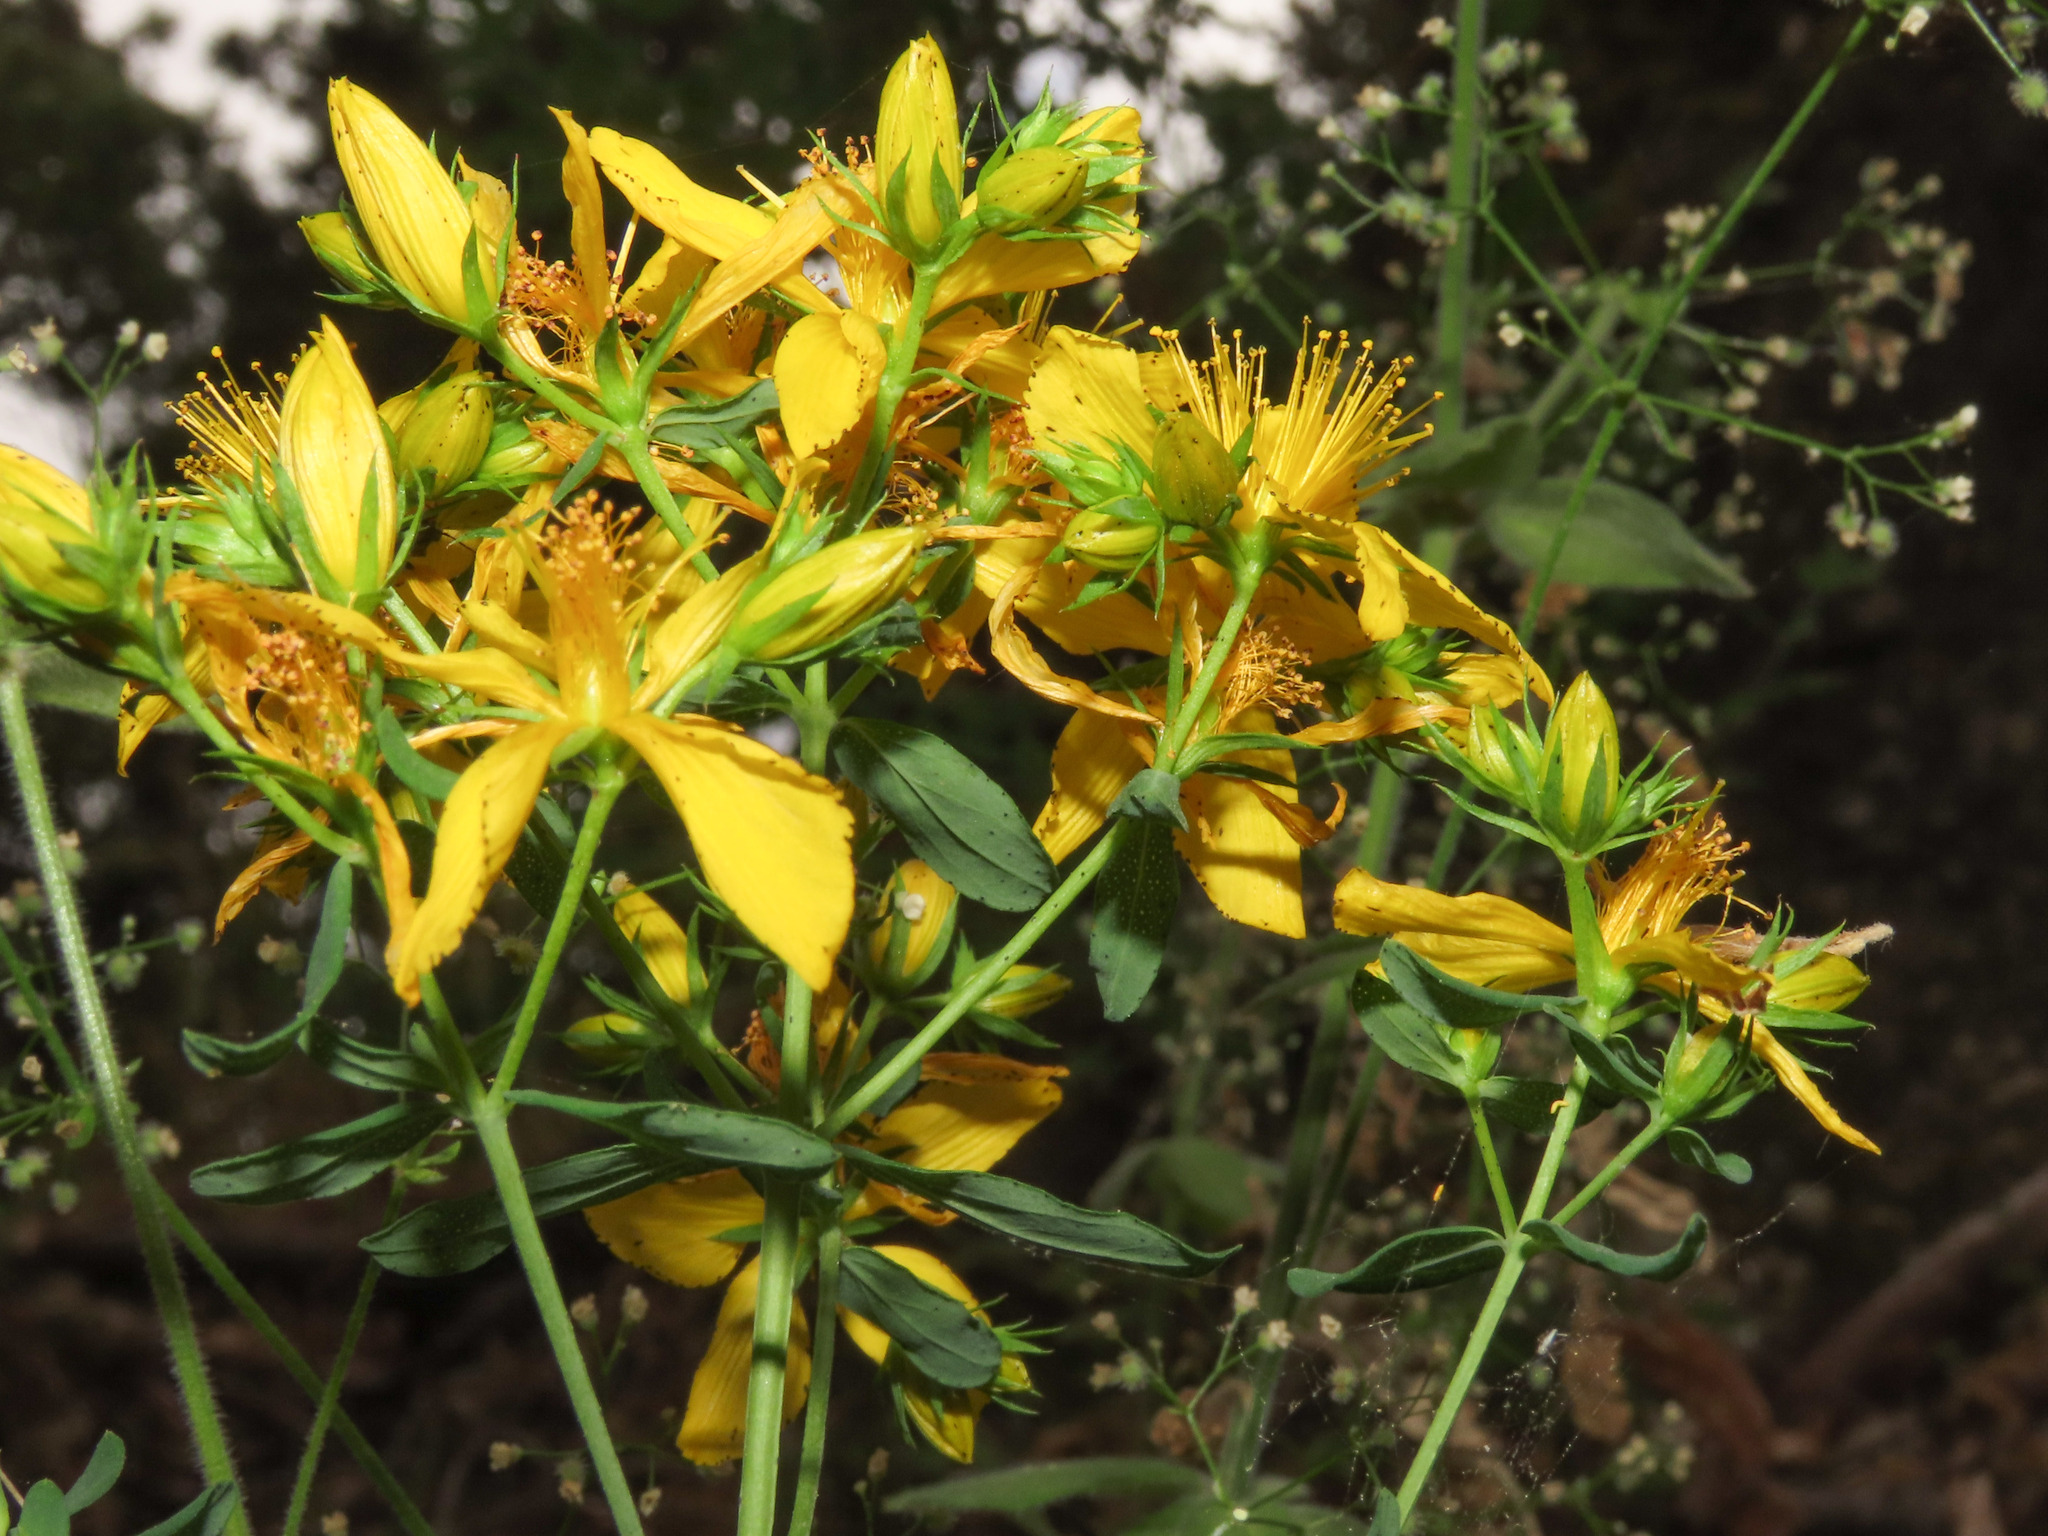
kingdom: Plantae
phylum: Tracheophyta
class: Magnoliopsida
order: Malpighiales
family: Hypericaceae
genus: Hypericum
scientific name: Hypericum perforatum
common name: Common st. johnswort
